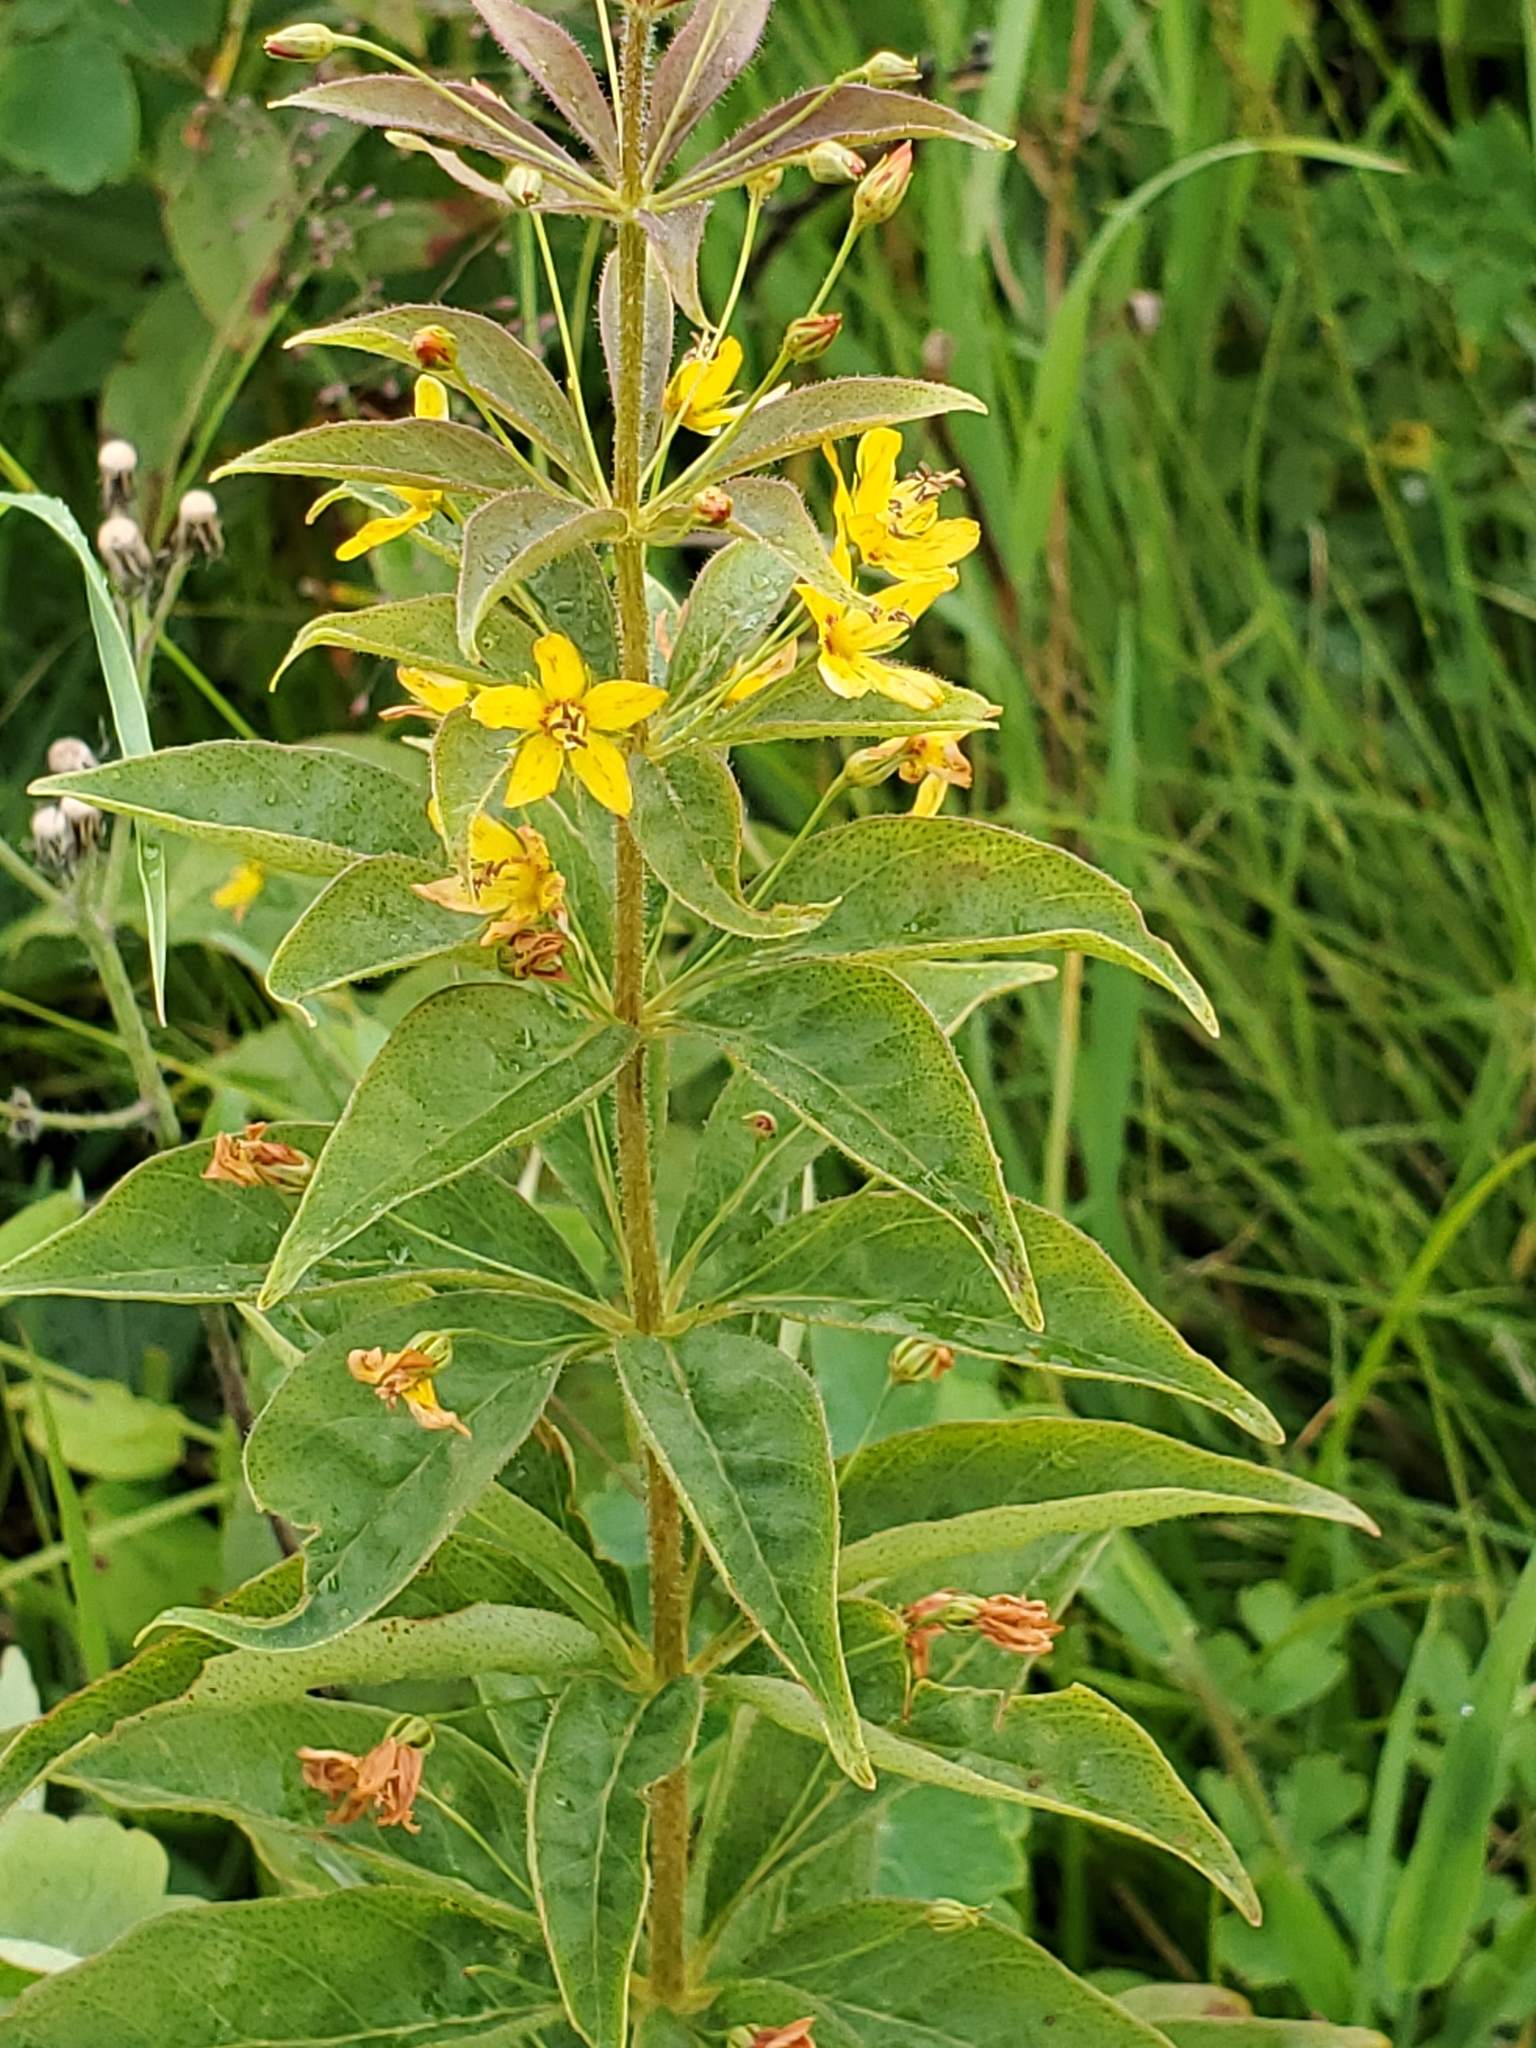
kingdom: Plantae
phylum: Tracheophyta
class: Magnoliopsida
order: Ericales
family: Primulaceae
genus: Lysimachia
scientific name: Lysimachia quadrifolia
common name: Whorled loosestrife
